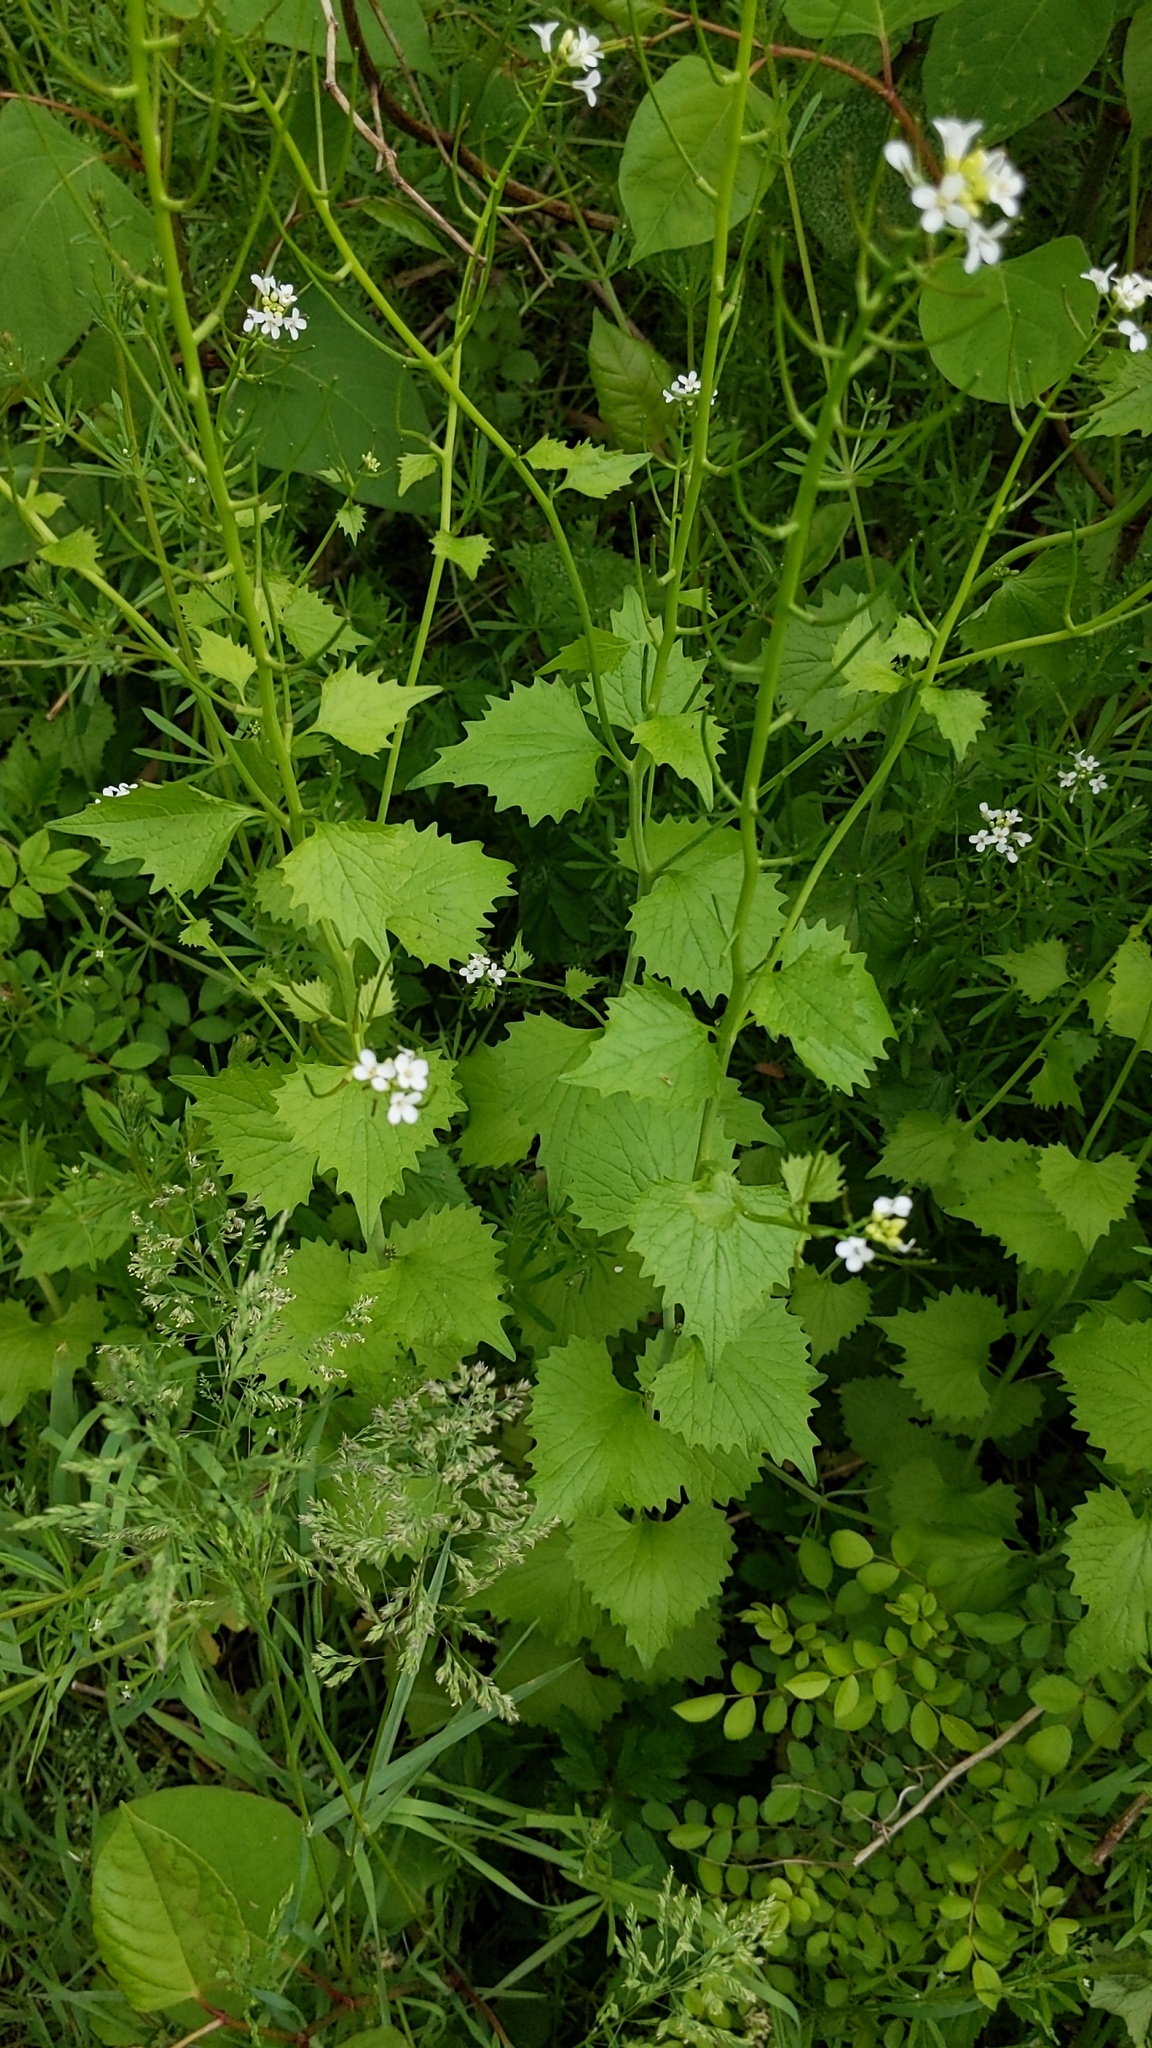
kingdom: Plantae
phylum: Tracheophyta
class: Magnoliopsida
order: Brassicales
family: Brassicaceae
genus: Alliaria
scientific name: Alliaria petiolata
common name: Garlic mustard
